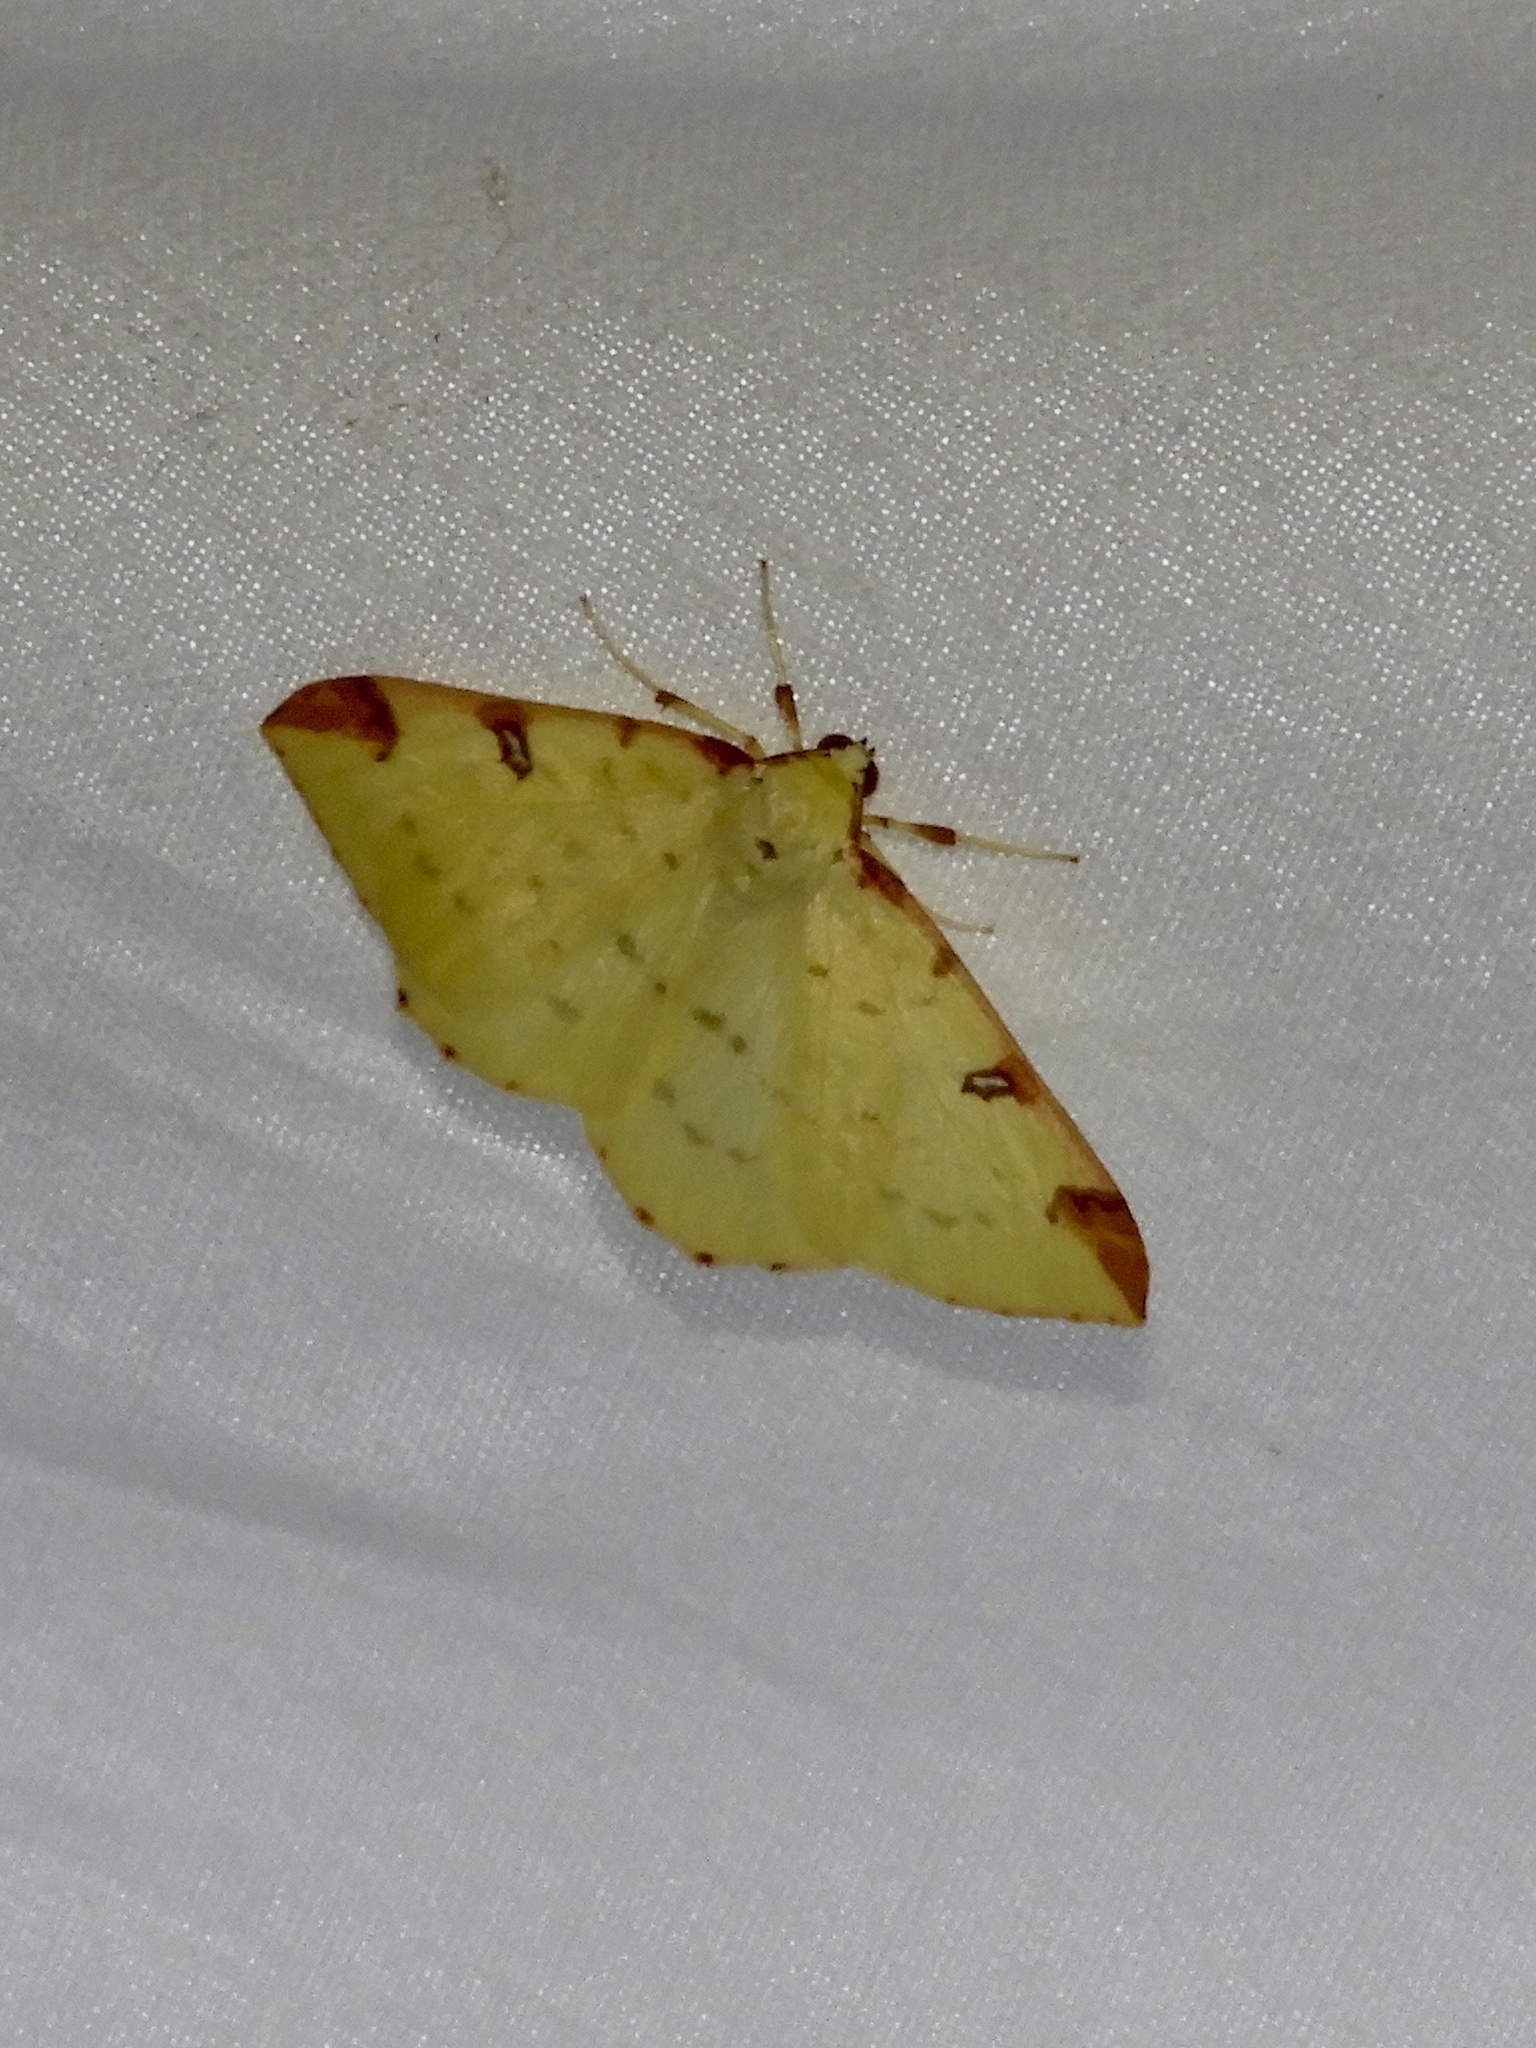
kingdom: Animalia
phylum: Arthropoda
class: Insecta
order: Lepidoptera
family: Geometridae
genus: Opisthograptis
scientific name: Opisthograptis luteolata
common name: Brimstone moth
